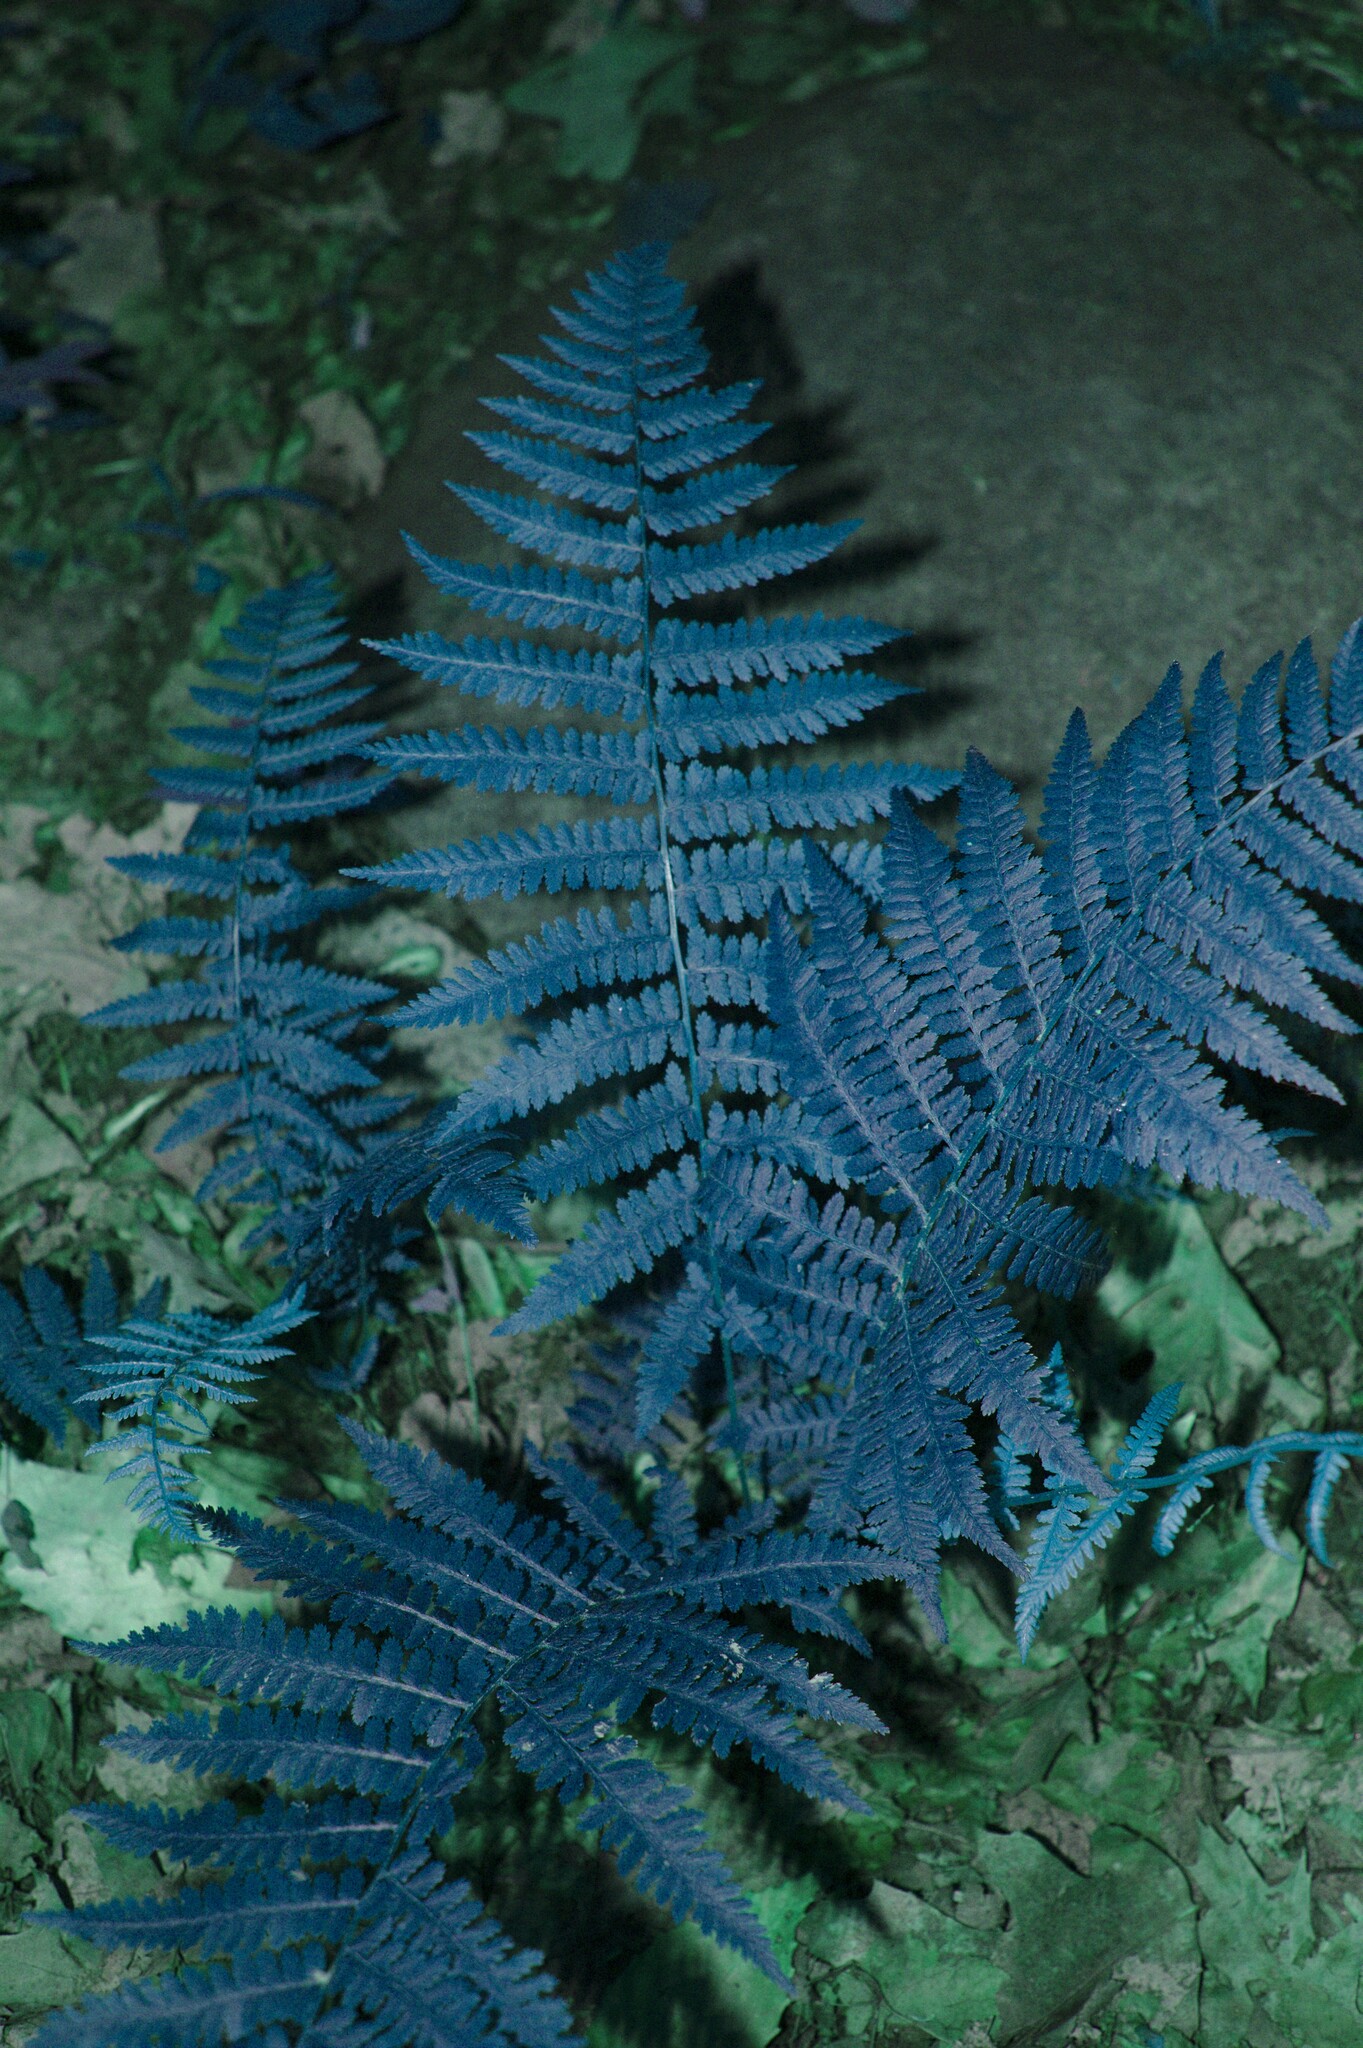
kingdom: Plantae
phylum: Tracheophyta
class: Polypodiopsida
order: Polypodiales
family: Athyriaceae
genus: Athyrium
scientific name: Athyrium angustum
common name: Northern lady fern
